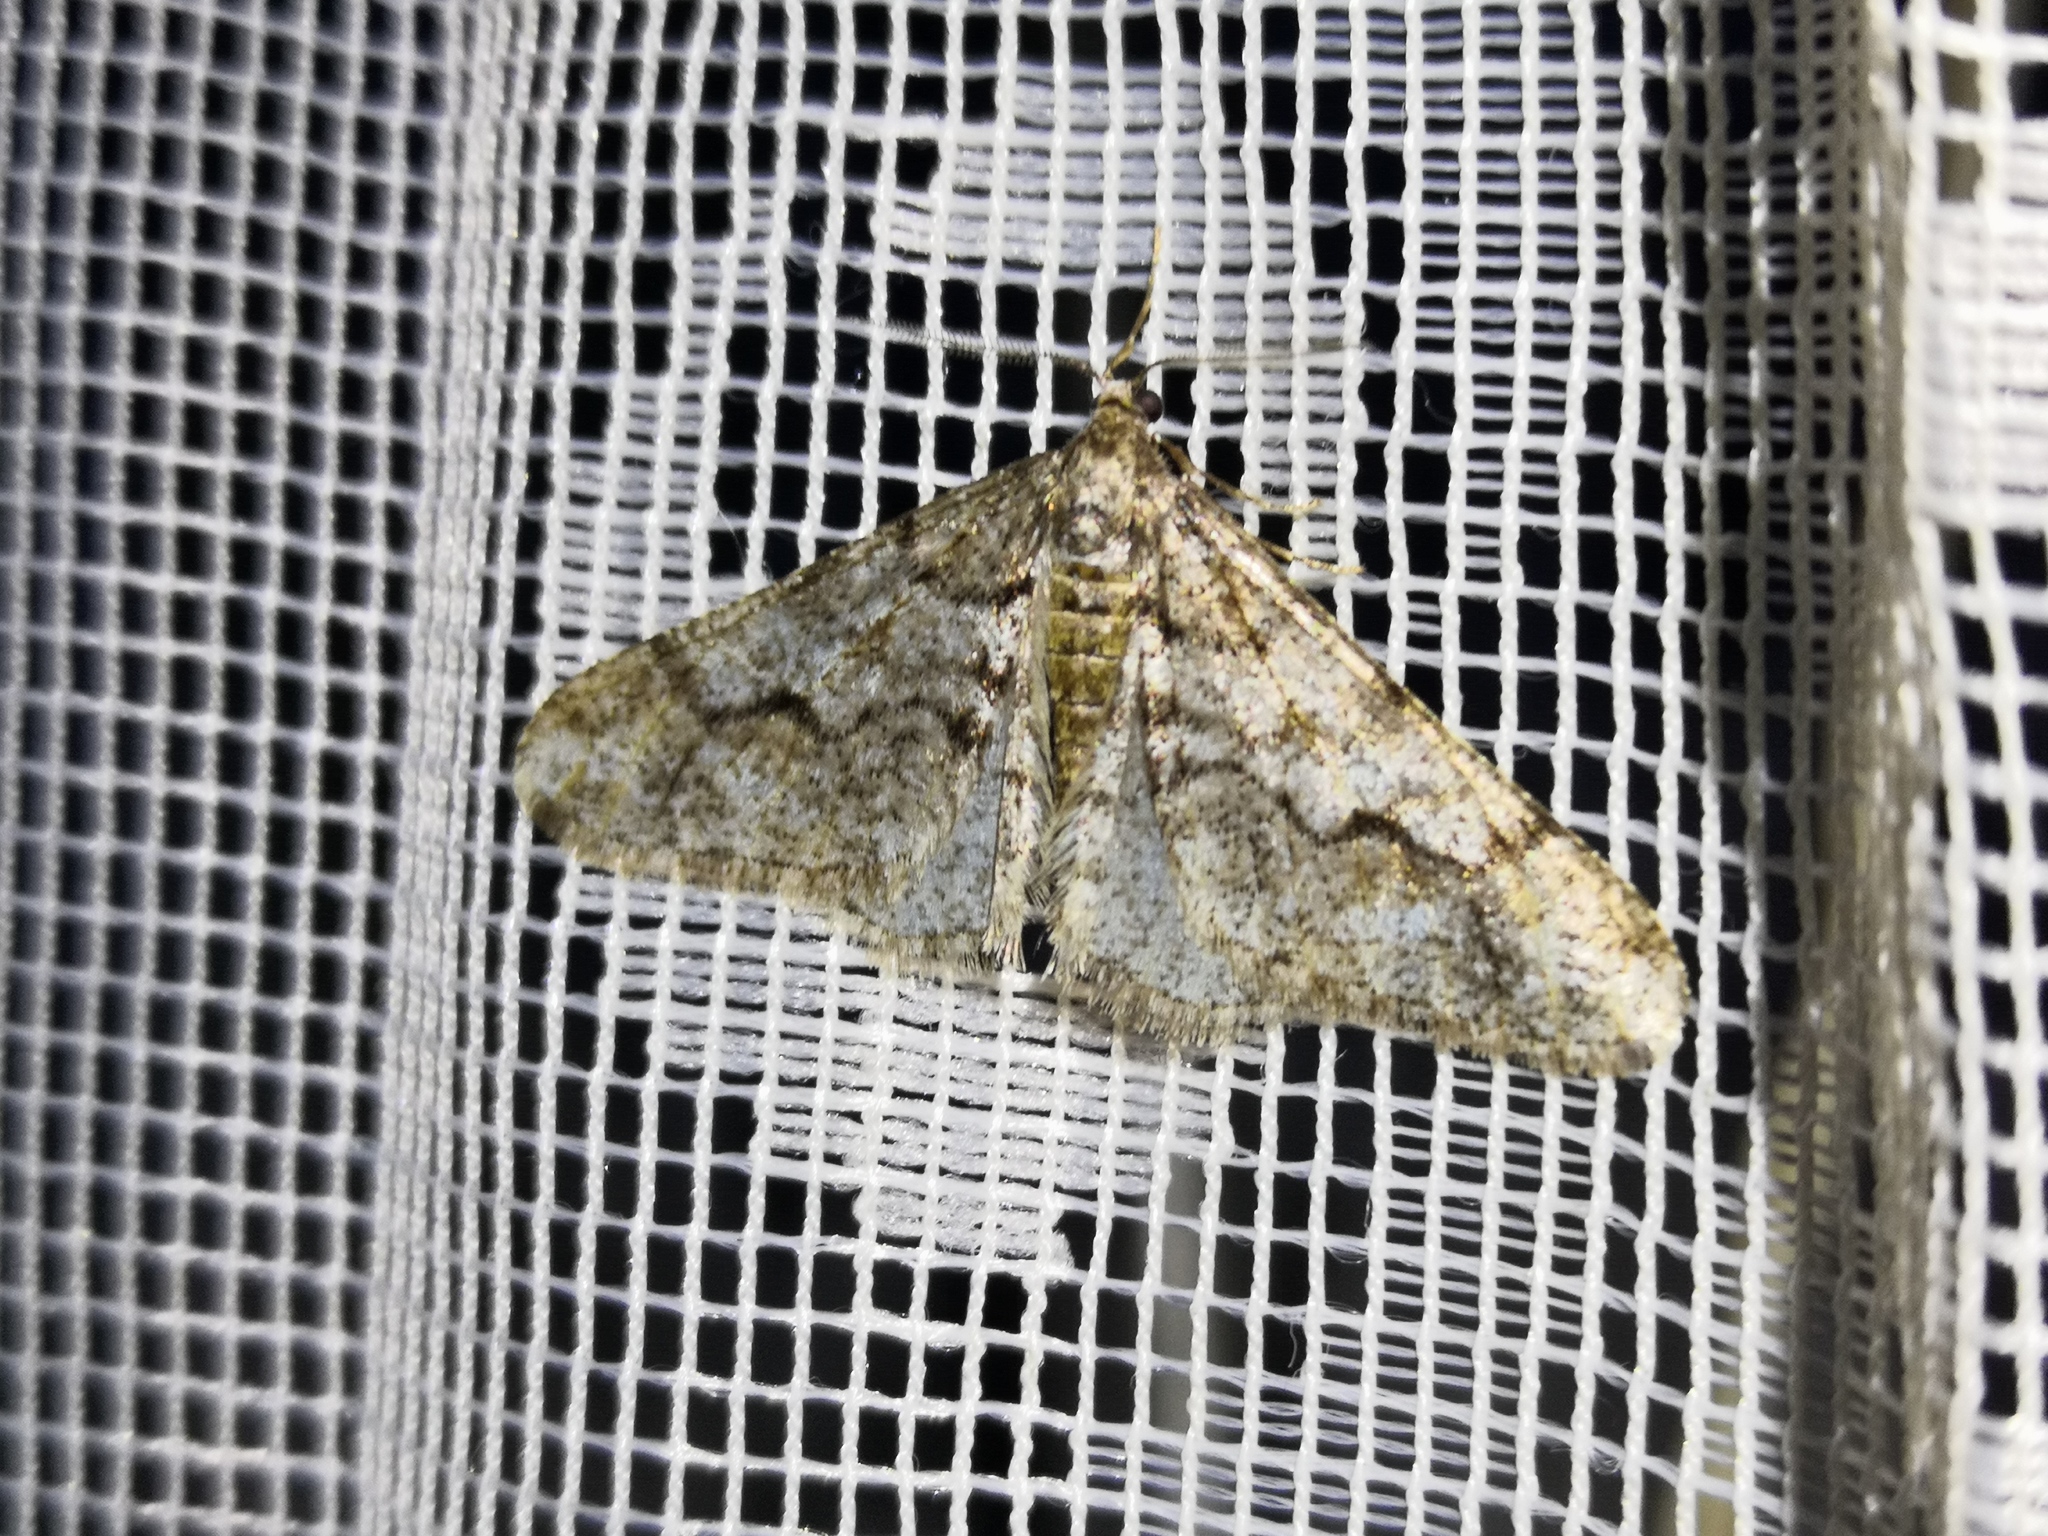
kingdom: Animalia
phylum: Arthropoda
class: Insecta
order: Lepidoptera
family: Geometridae
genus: Agriopis
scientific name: Agriopis leucophaearia
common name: Spring usher
